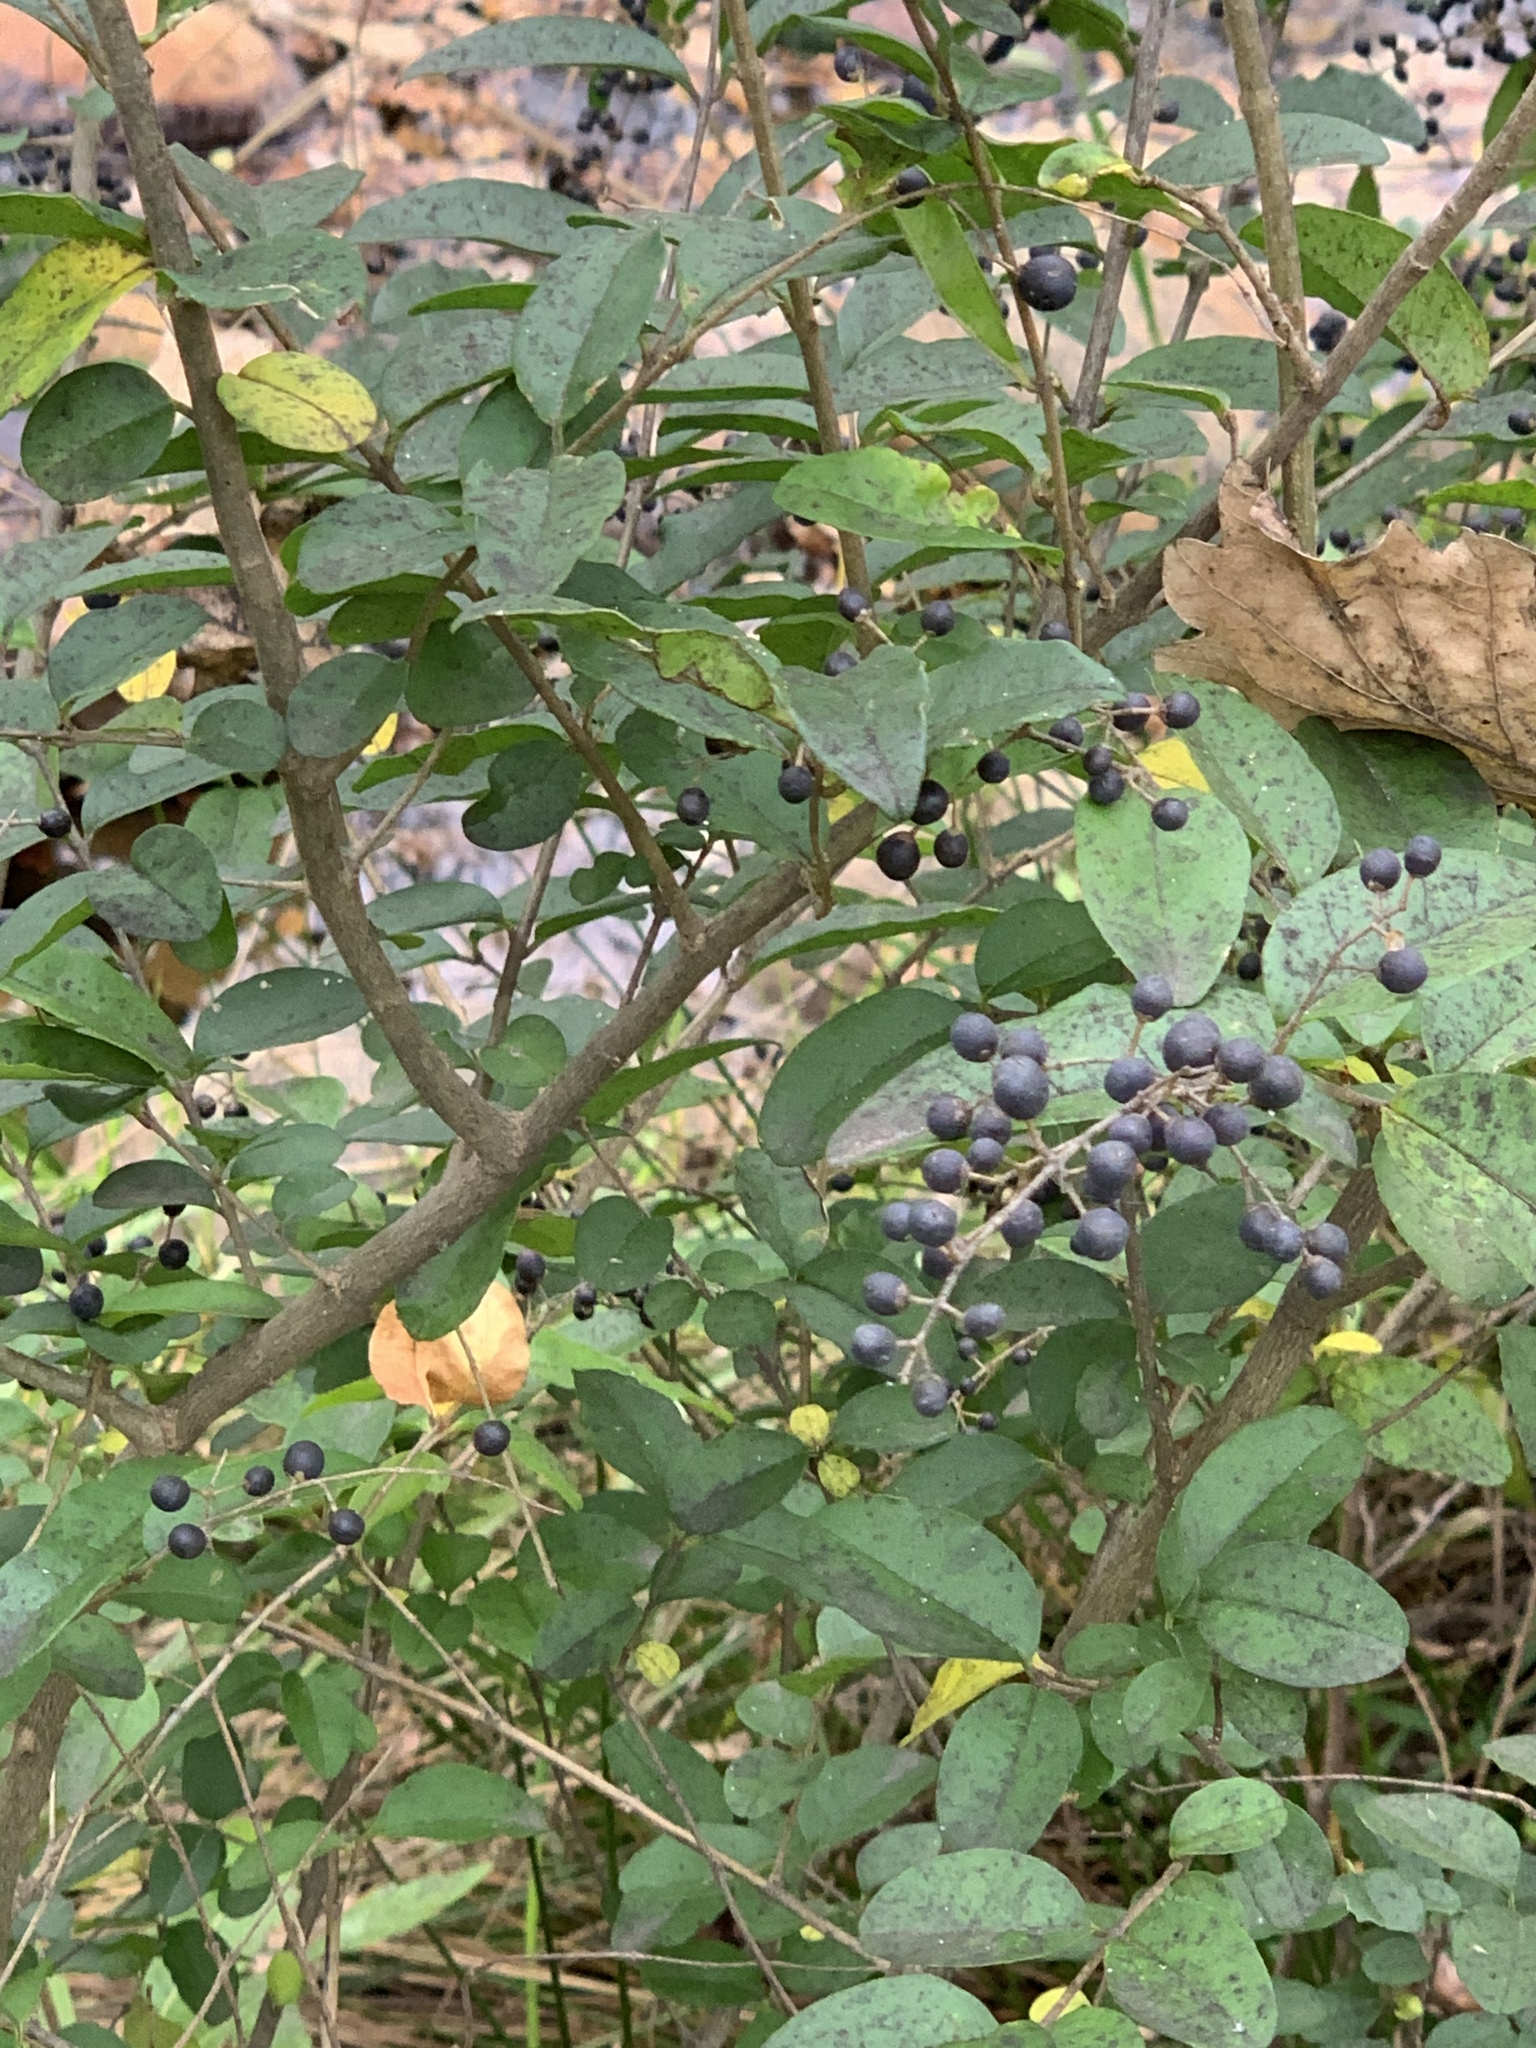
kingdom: Plantae
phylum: Tracheophyta
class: Magnoliopsida
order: Lamiales
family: Oleaceae
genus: Ligustrum
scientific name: Ligustrum sinense
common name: Chinese privet
